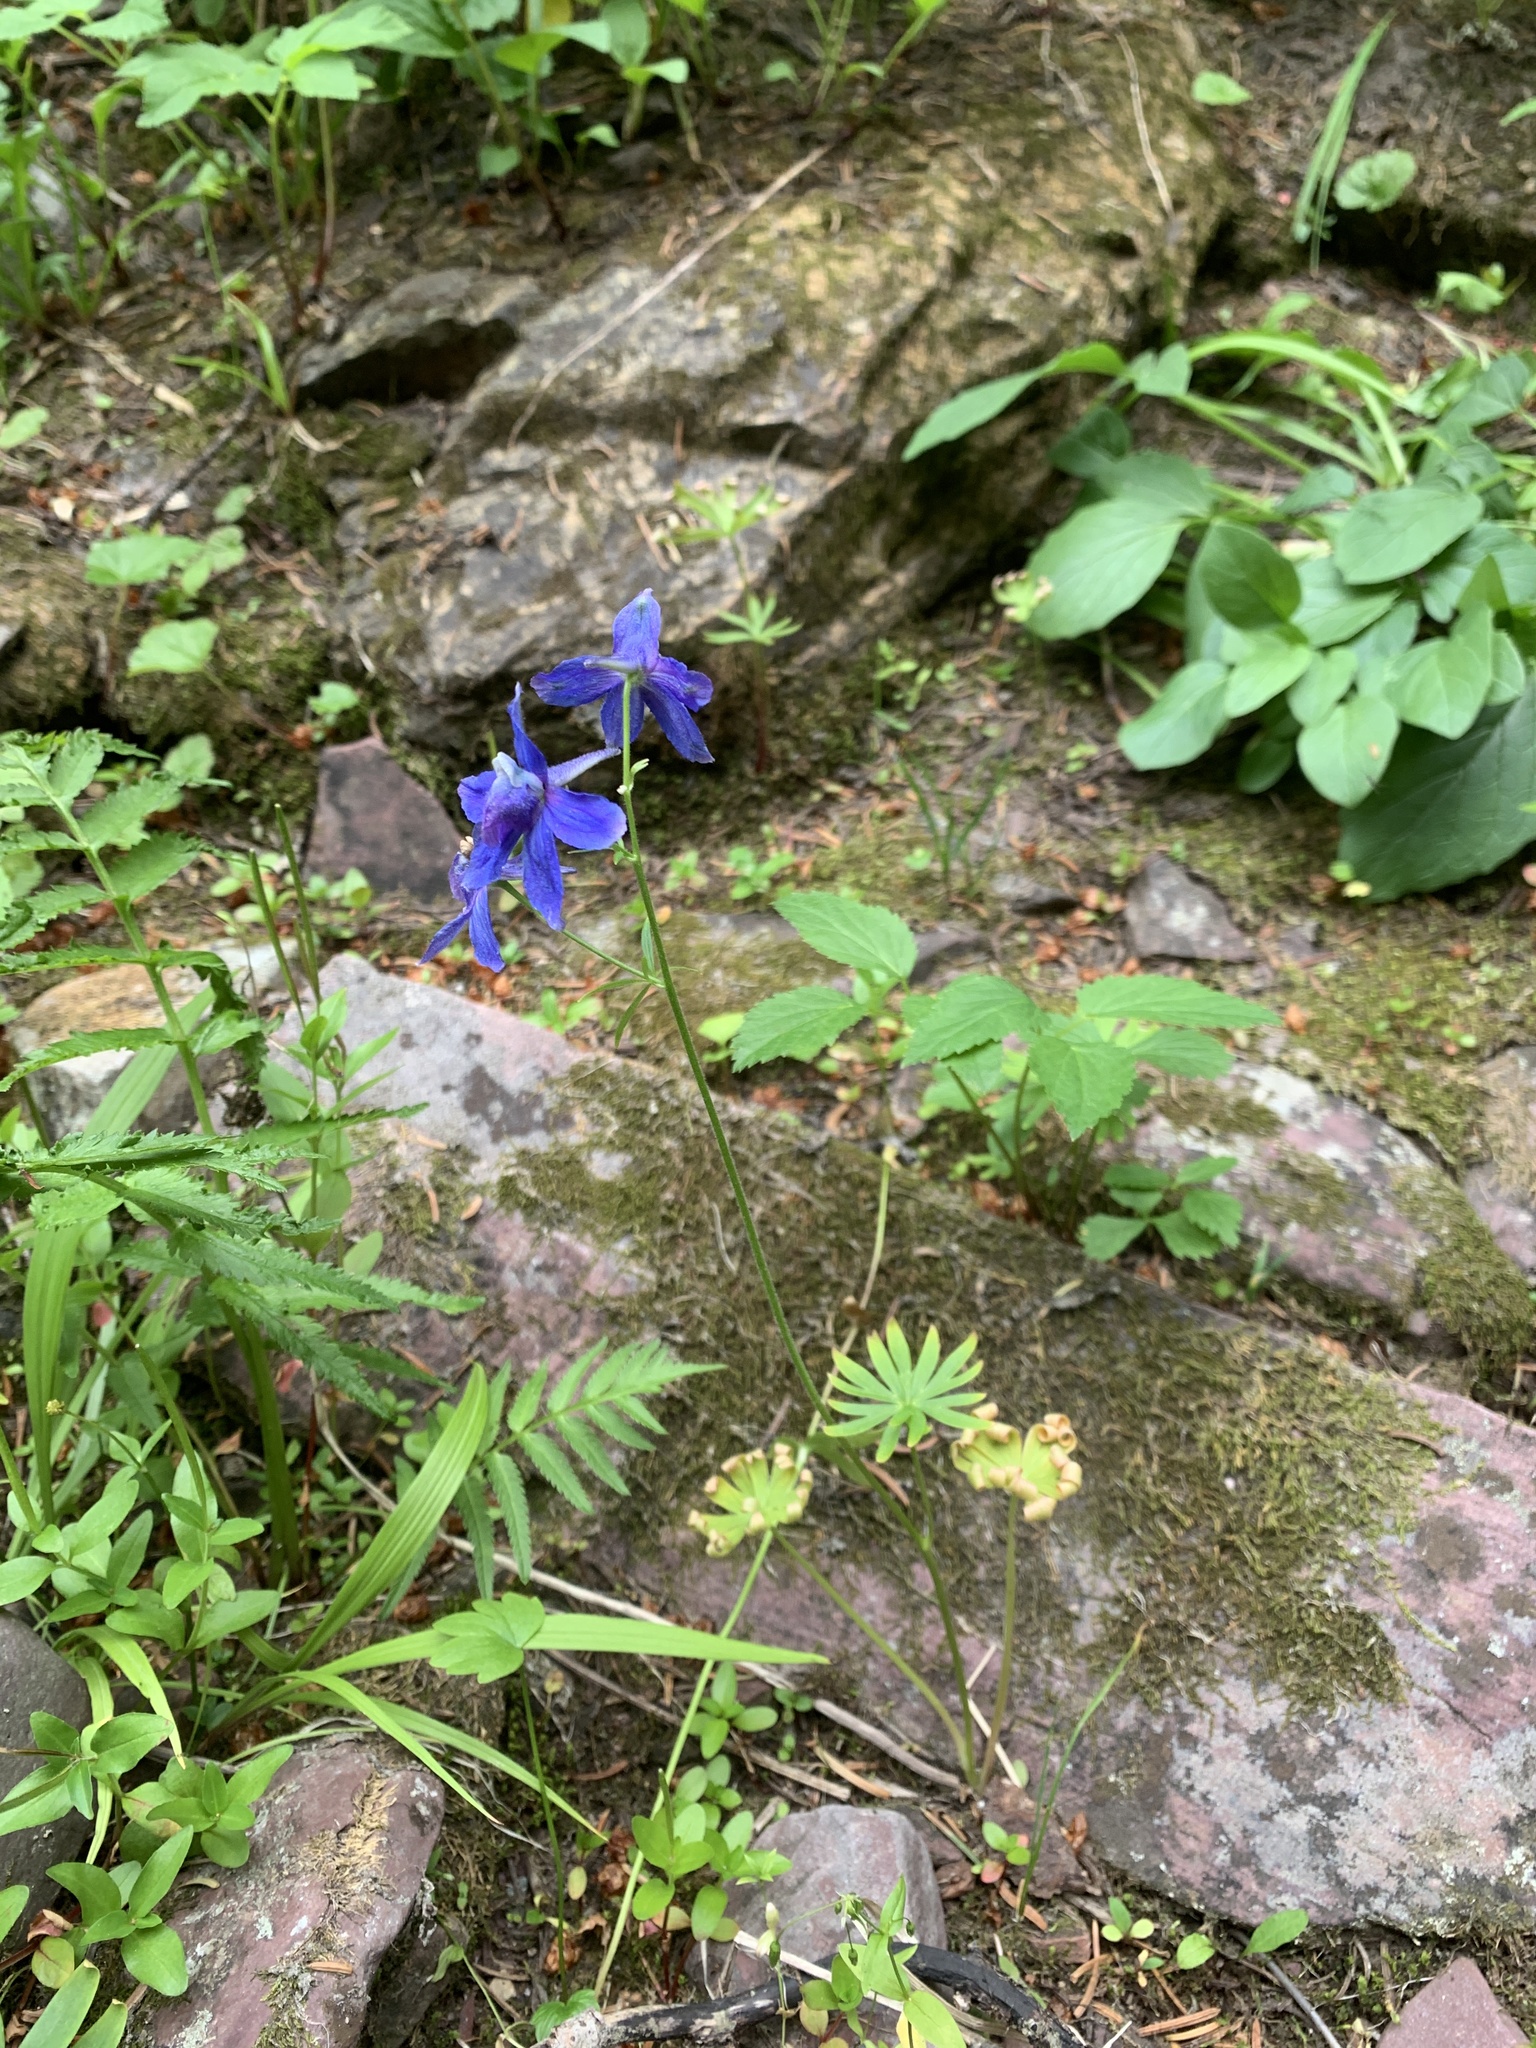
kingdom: Plantae
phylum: Tracheophyta
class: Magnoliopsida
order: Ranunculales
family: Ranunculaceae
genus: Delphinium
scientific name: Delphinium bicolor
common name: Low larkspur
